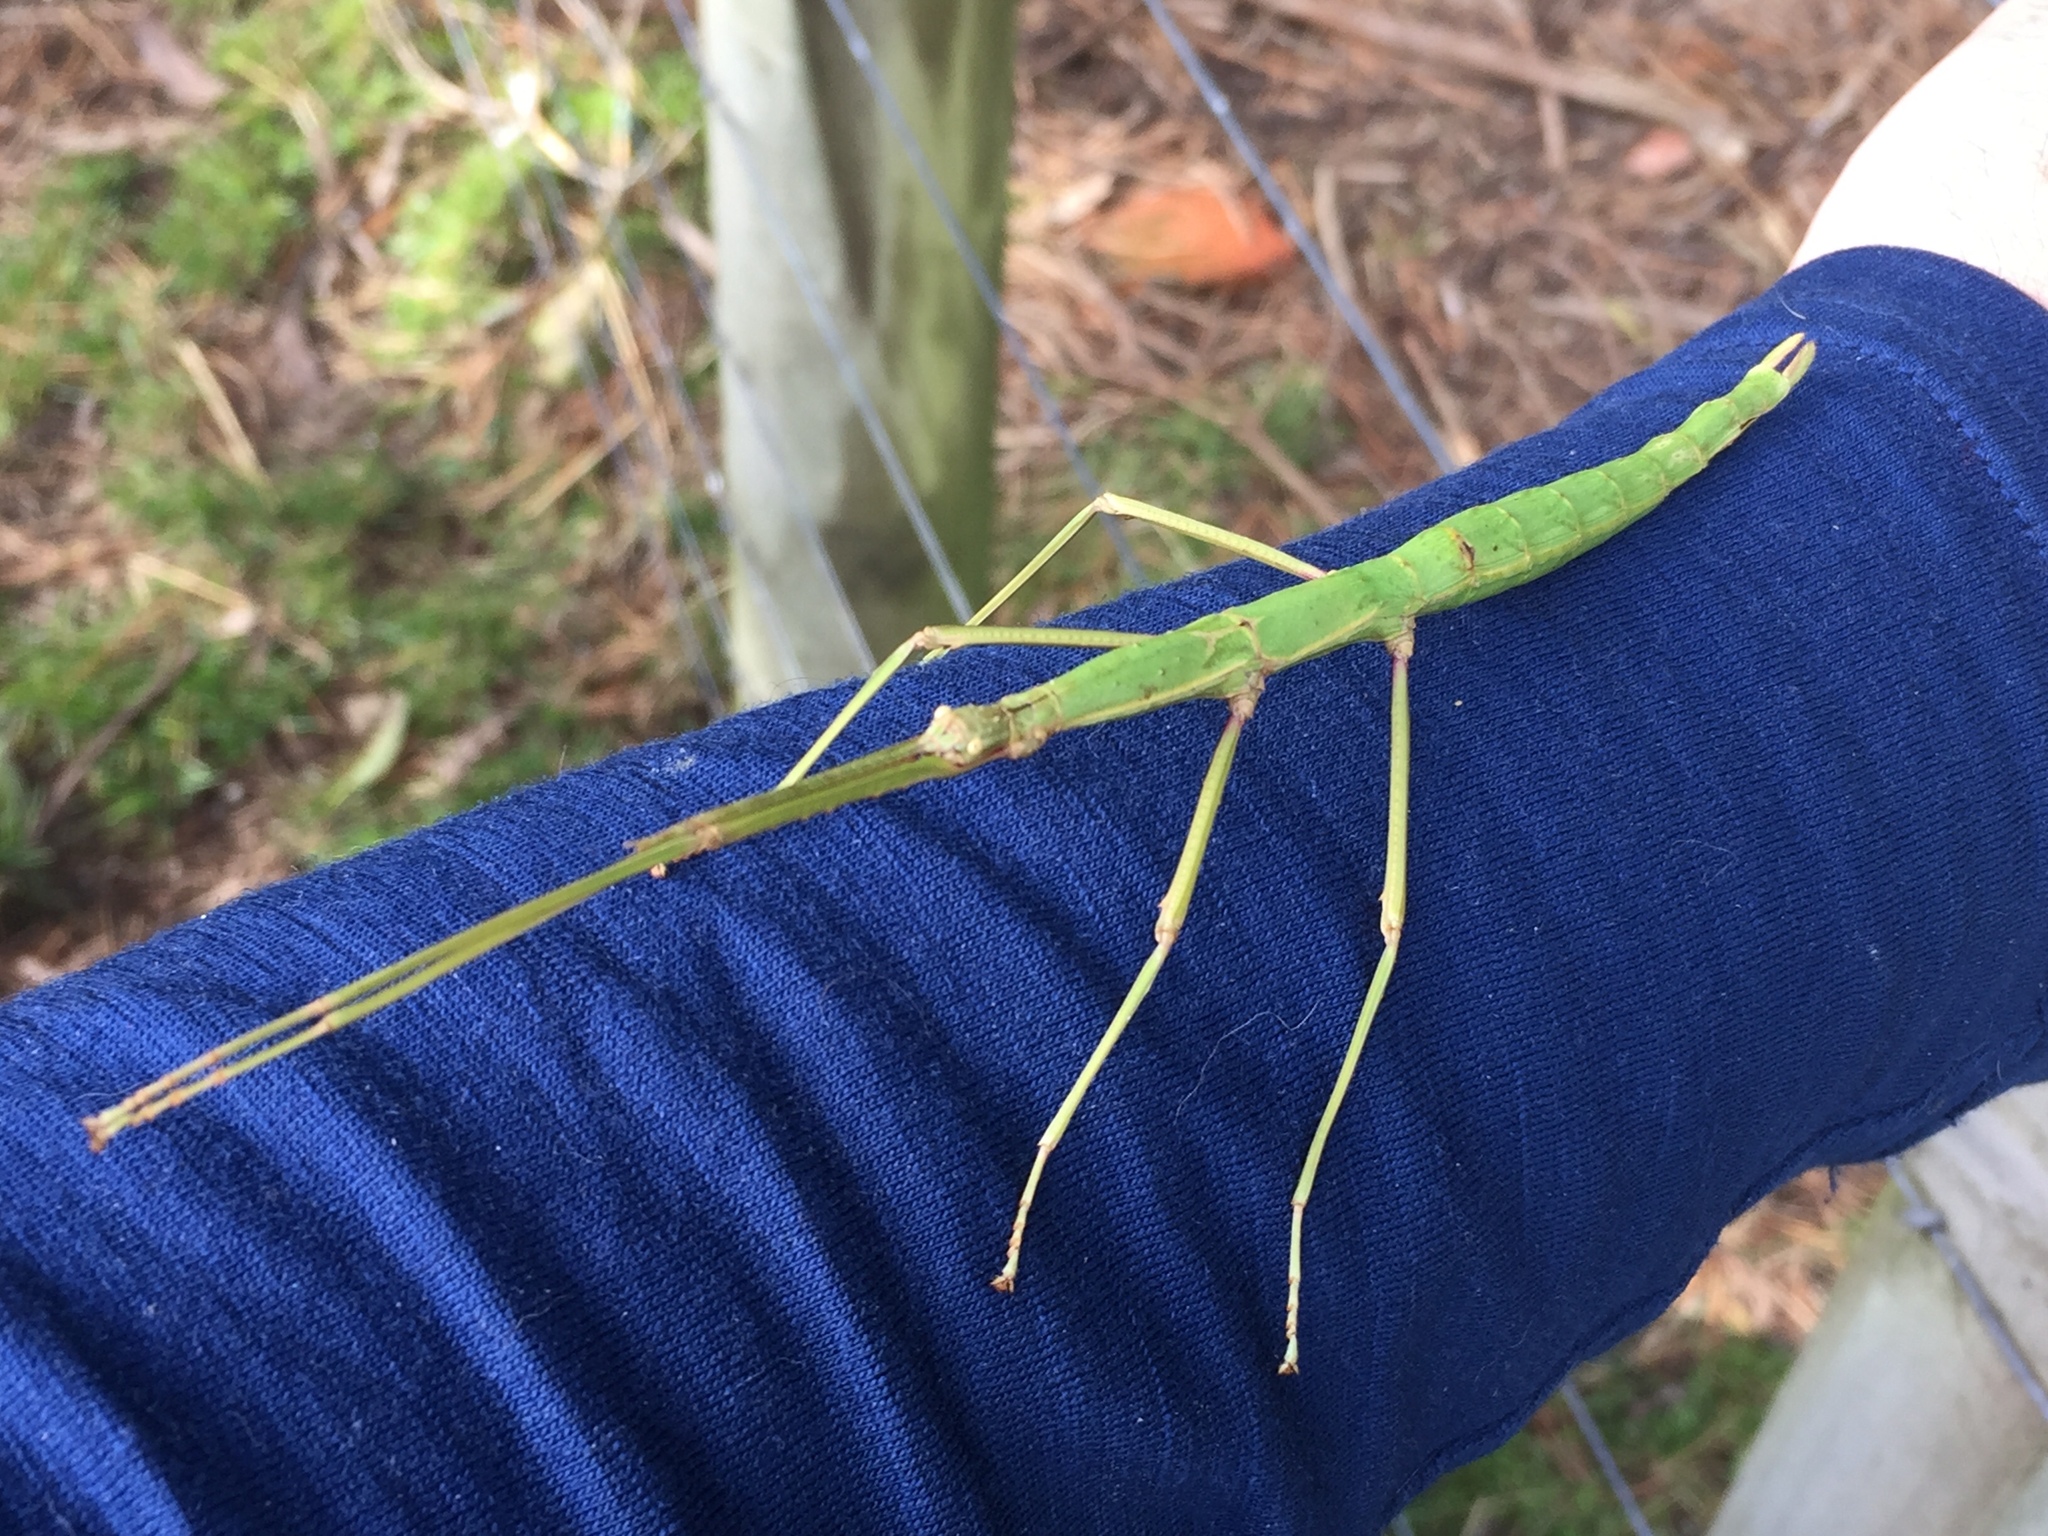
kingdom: Animalia
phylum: Arthropoda
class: Insecta
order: Phasmida
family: Phasmatidae
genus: Clitarchus
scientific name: Clitarchus hookeri
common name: Smooth stick insect
